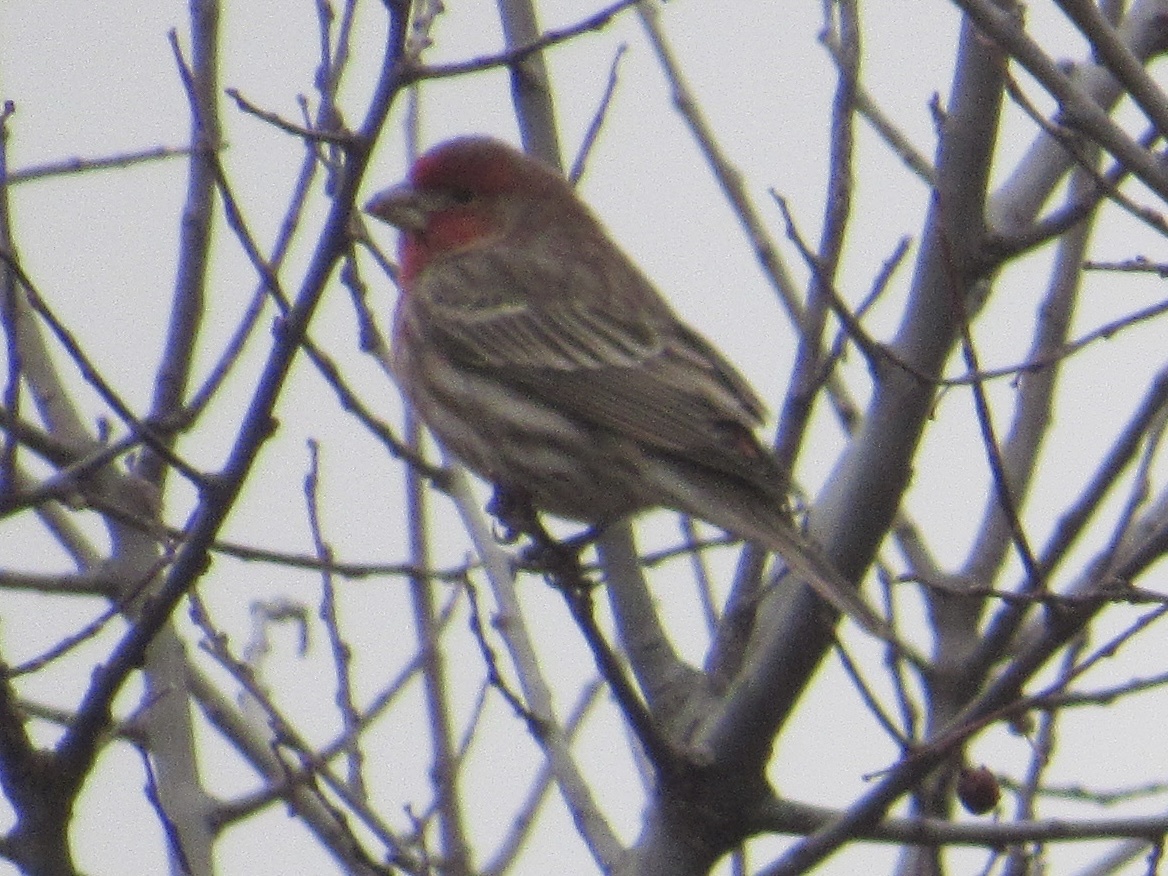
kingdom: Animalia
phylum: Chordata
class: Aves
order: Passeriformes
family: Fringillidae
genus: Haemorhous
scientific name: Haemorhous mexicanus
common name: House finch
